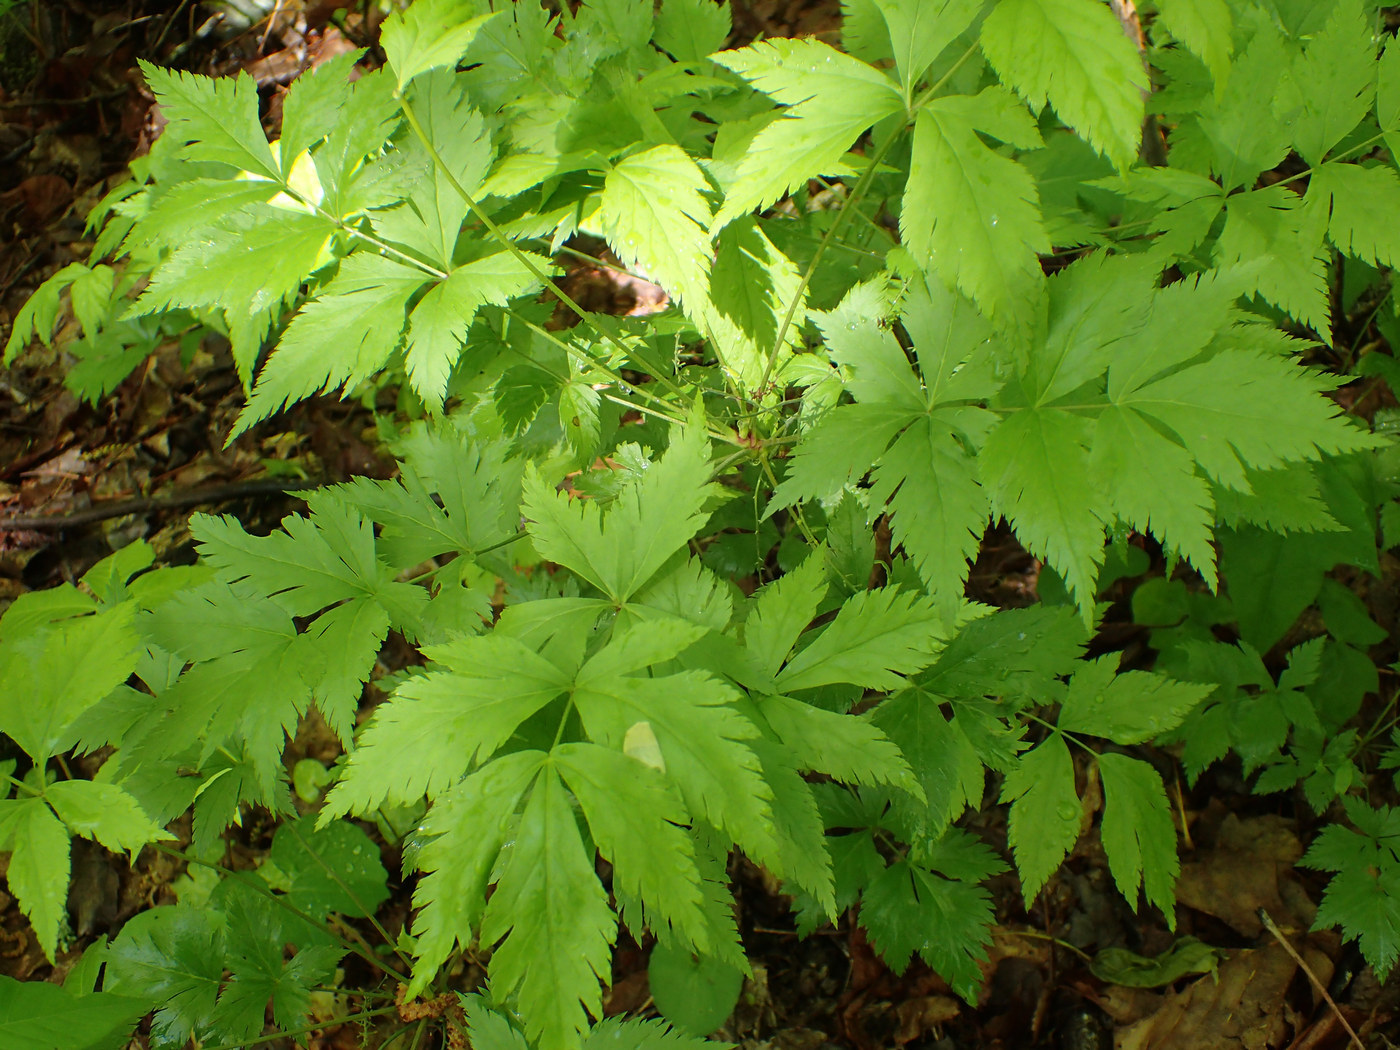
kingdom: Plantae
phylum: Tracheophyta
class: Magnoliopsida
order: Ranunculales
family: Ranunculaceae
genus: Xanthorhiza
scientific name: Xanthorhiza simplicissima
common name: Yellowroot
